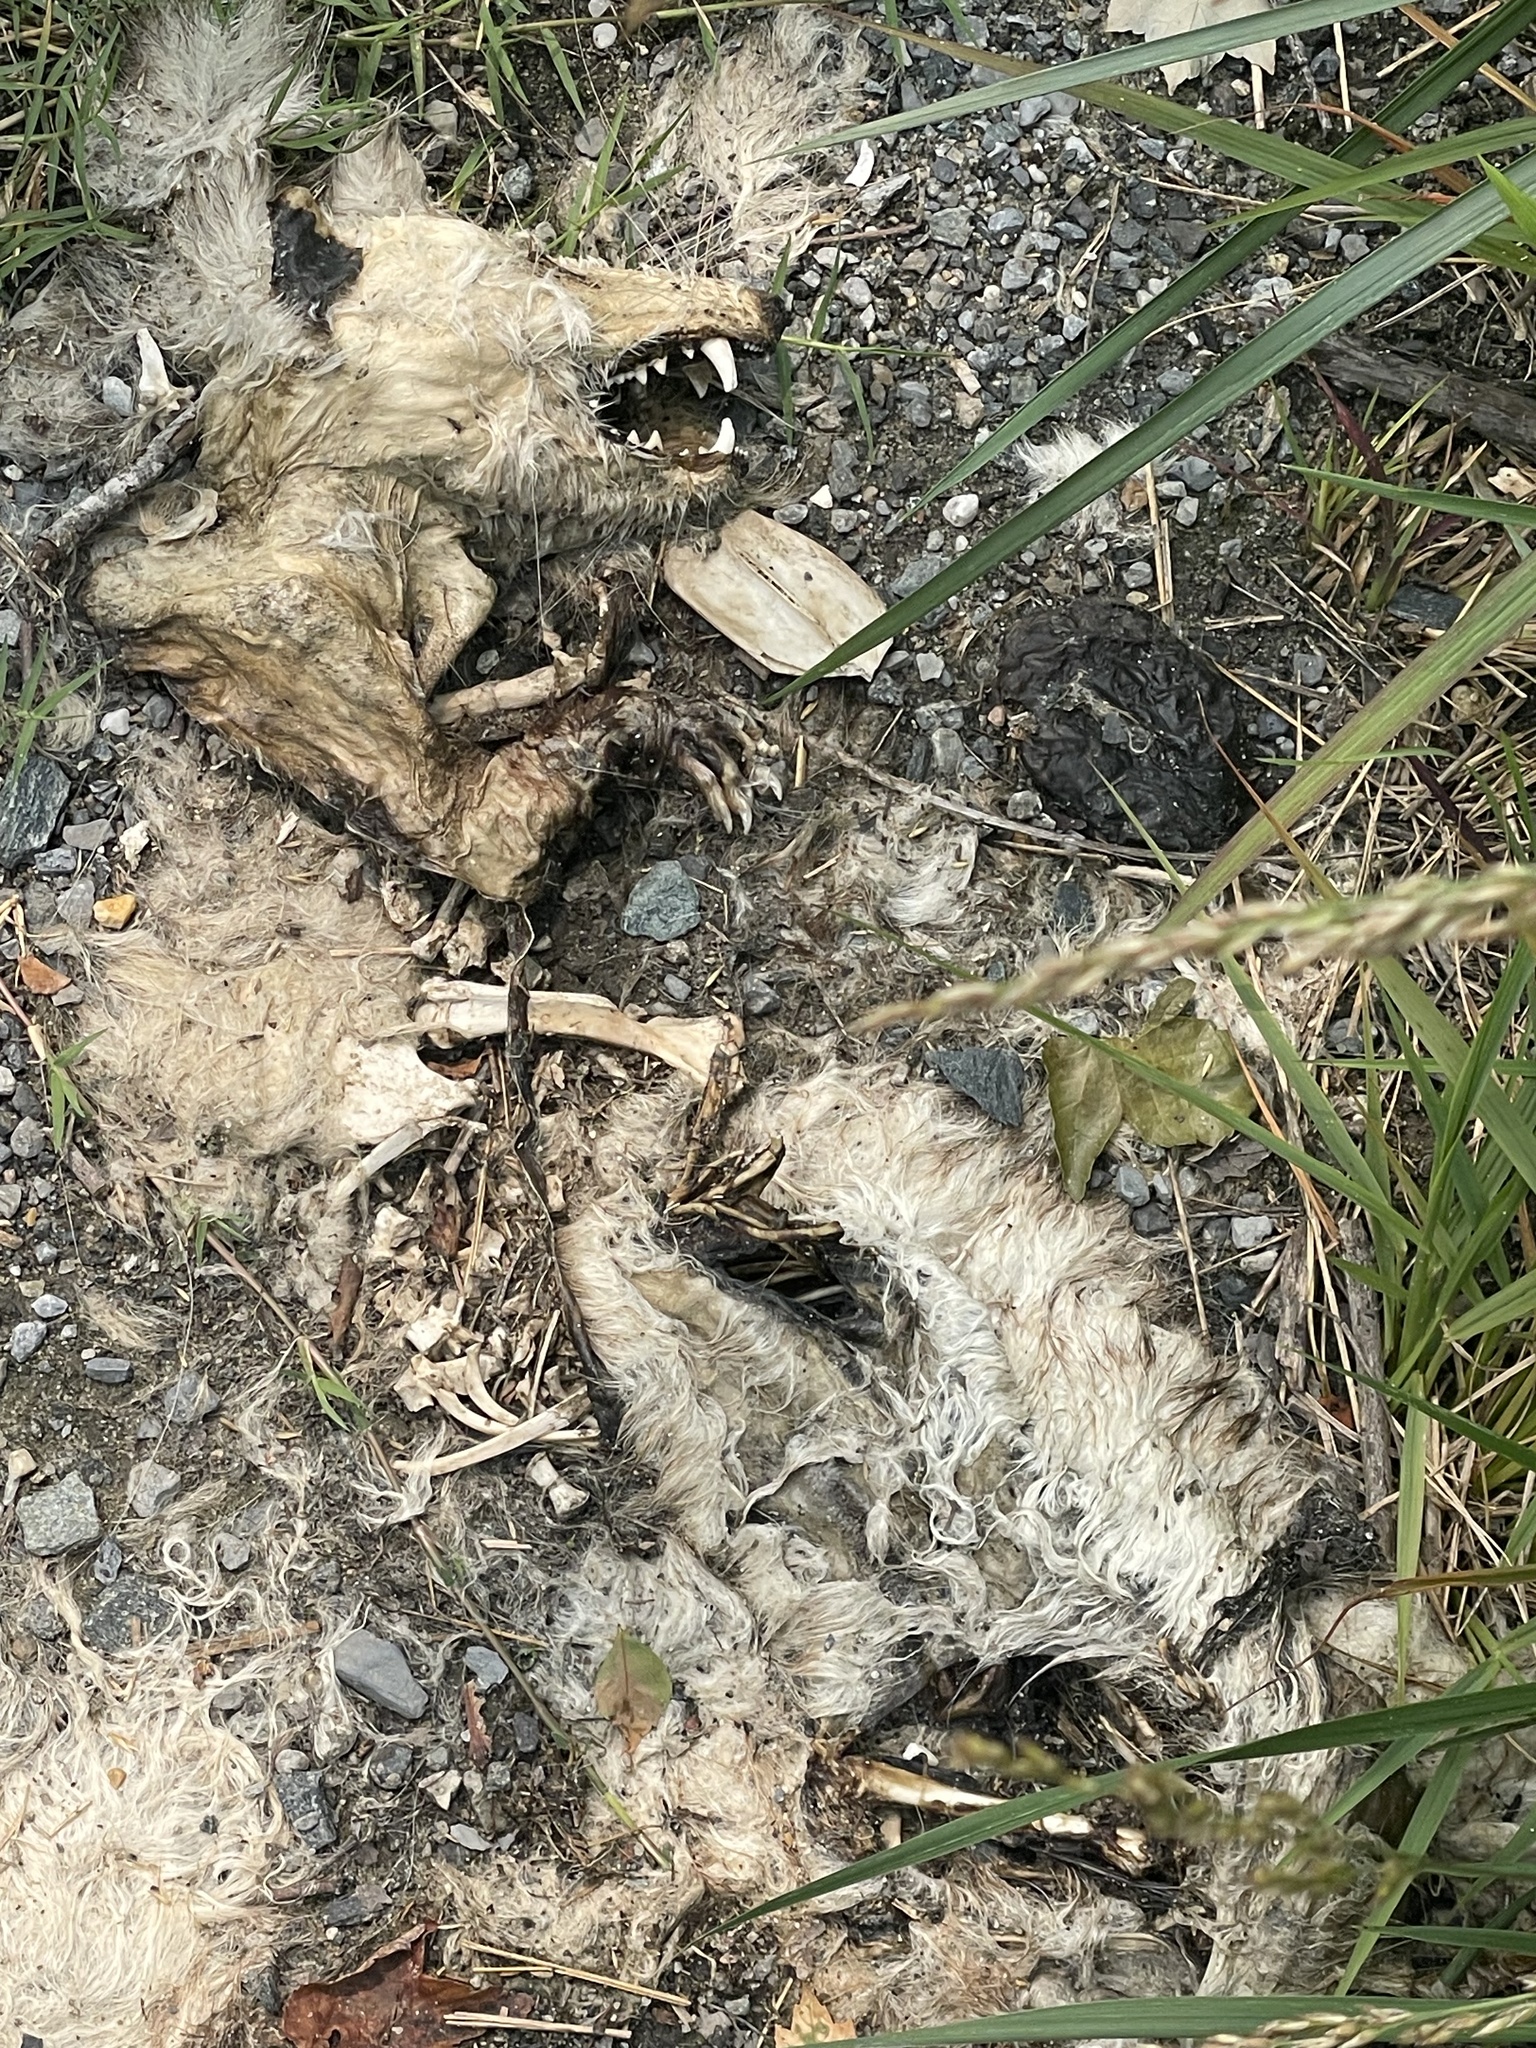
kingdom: Animalia
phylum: Chordata
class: Mammalia
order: Didelphimorphia
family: Didelphidae
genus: Didelphis
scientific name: Didelphis virginiana
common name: Virginia opossum
